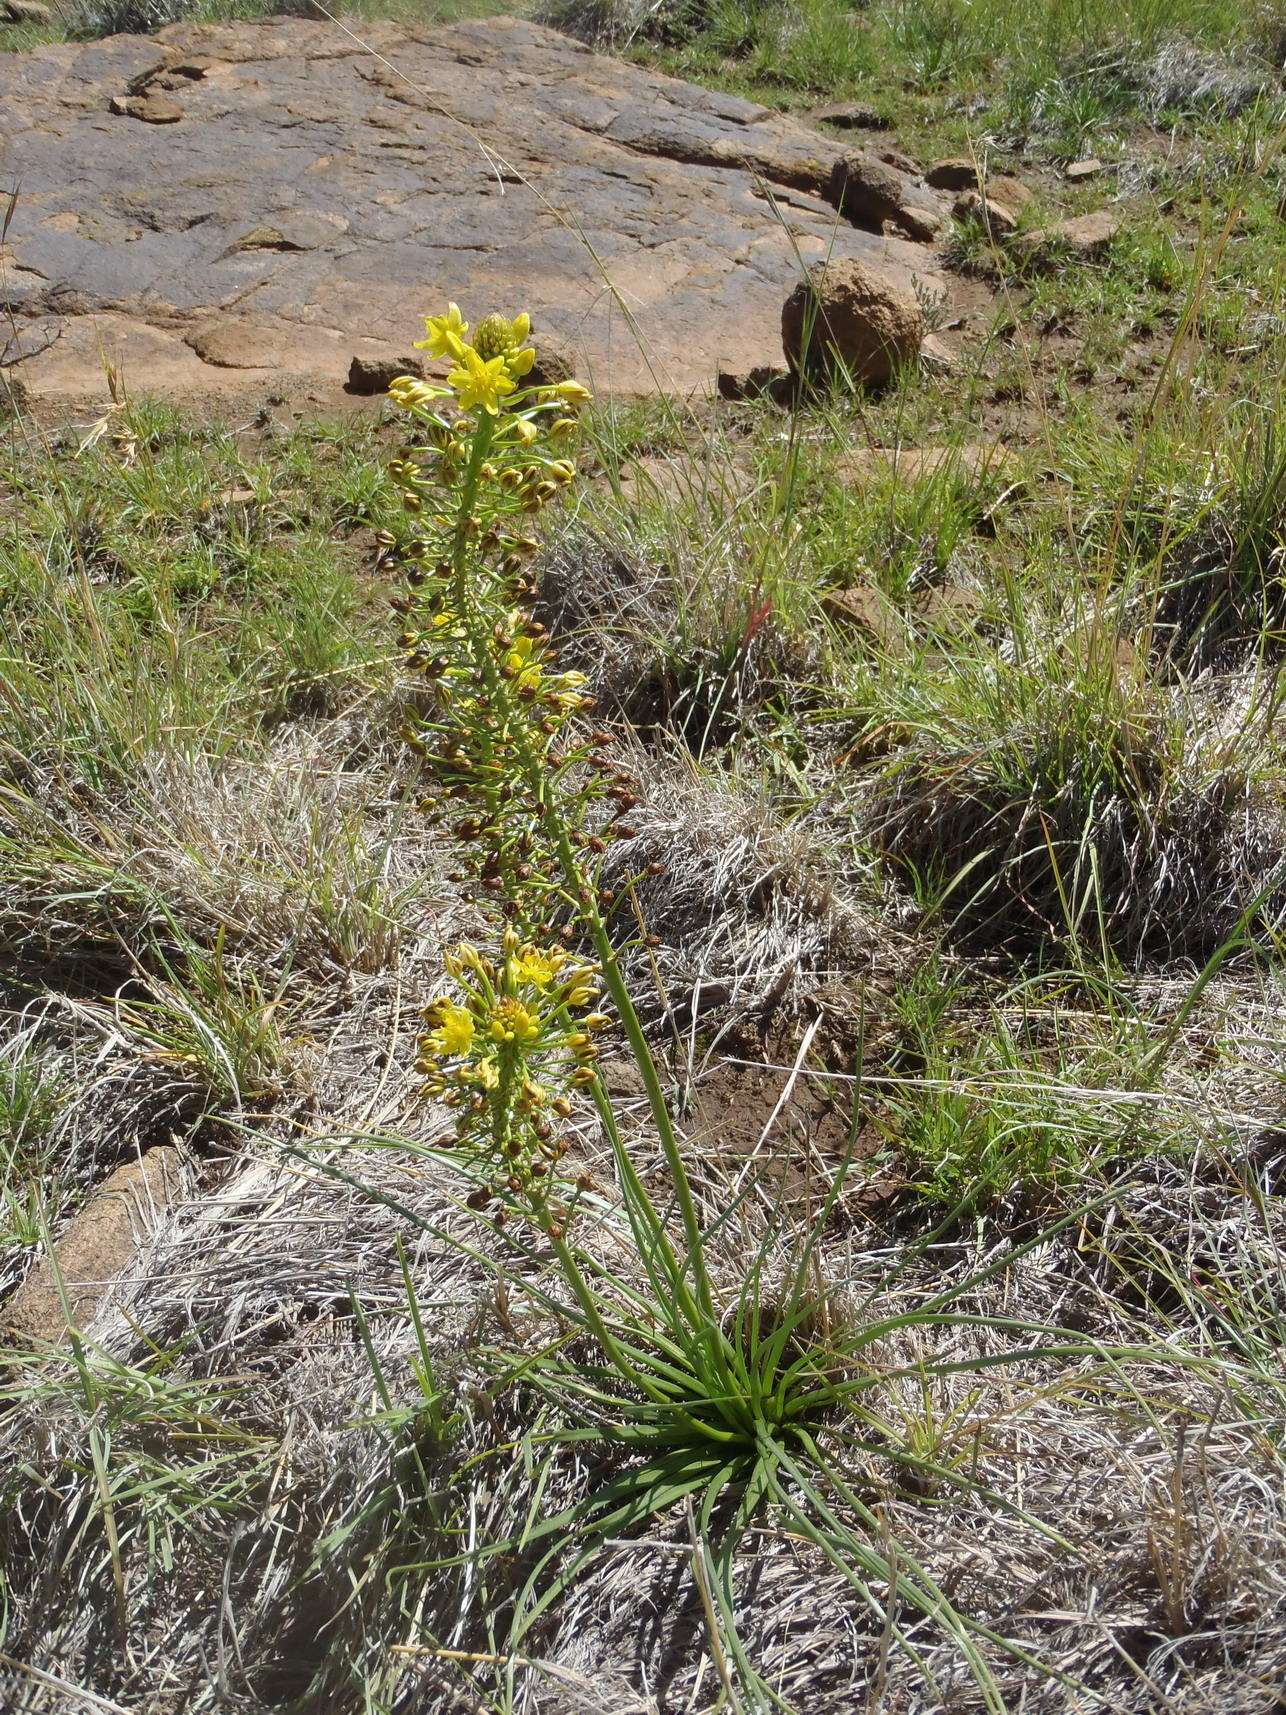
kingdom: Plantae
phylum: Tracheophyta
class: Liliopsida
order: Asparagales
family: Asphodelaceae
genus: Bulbine
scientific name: Bulbine abyssinica
